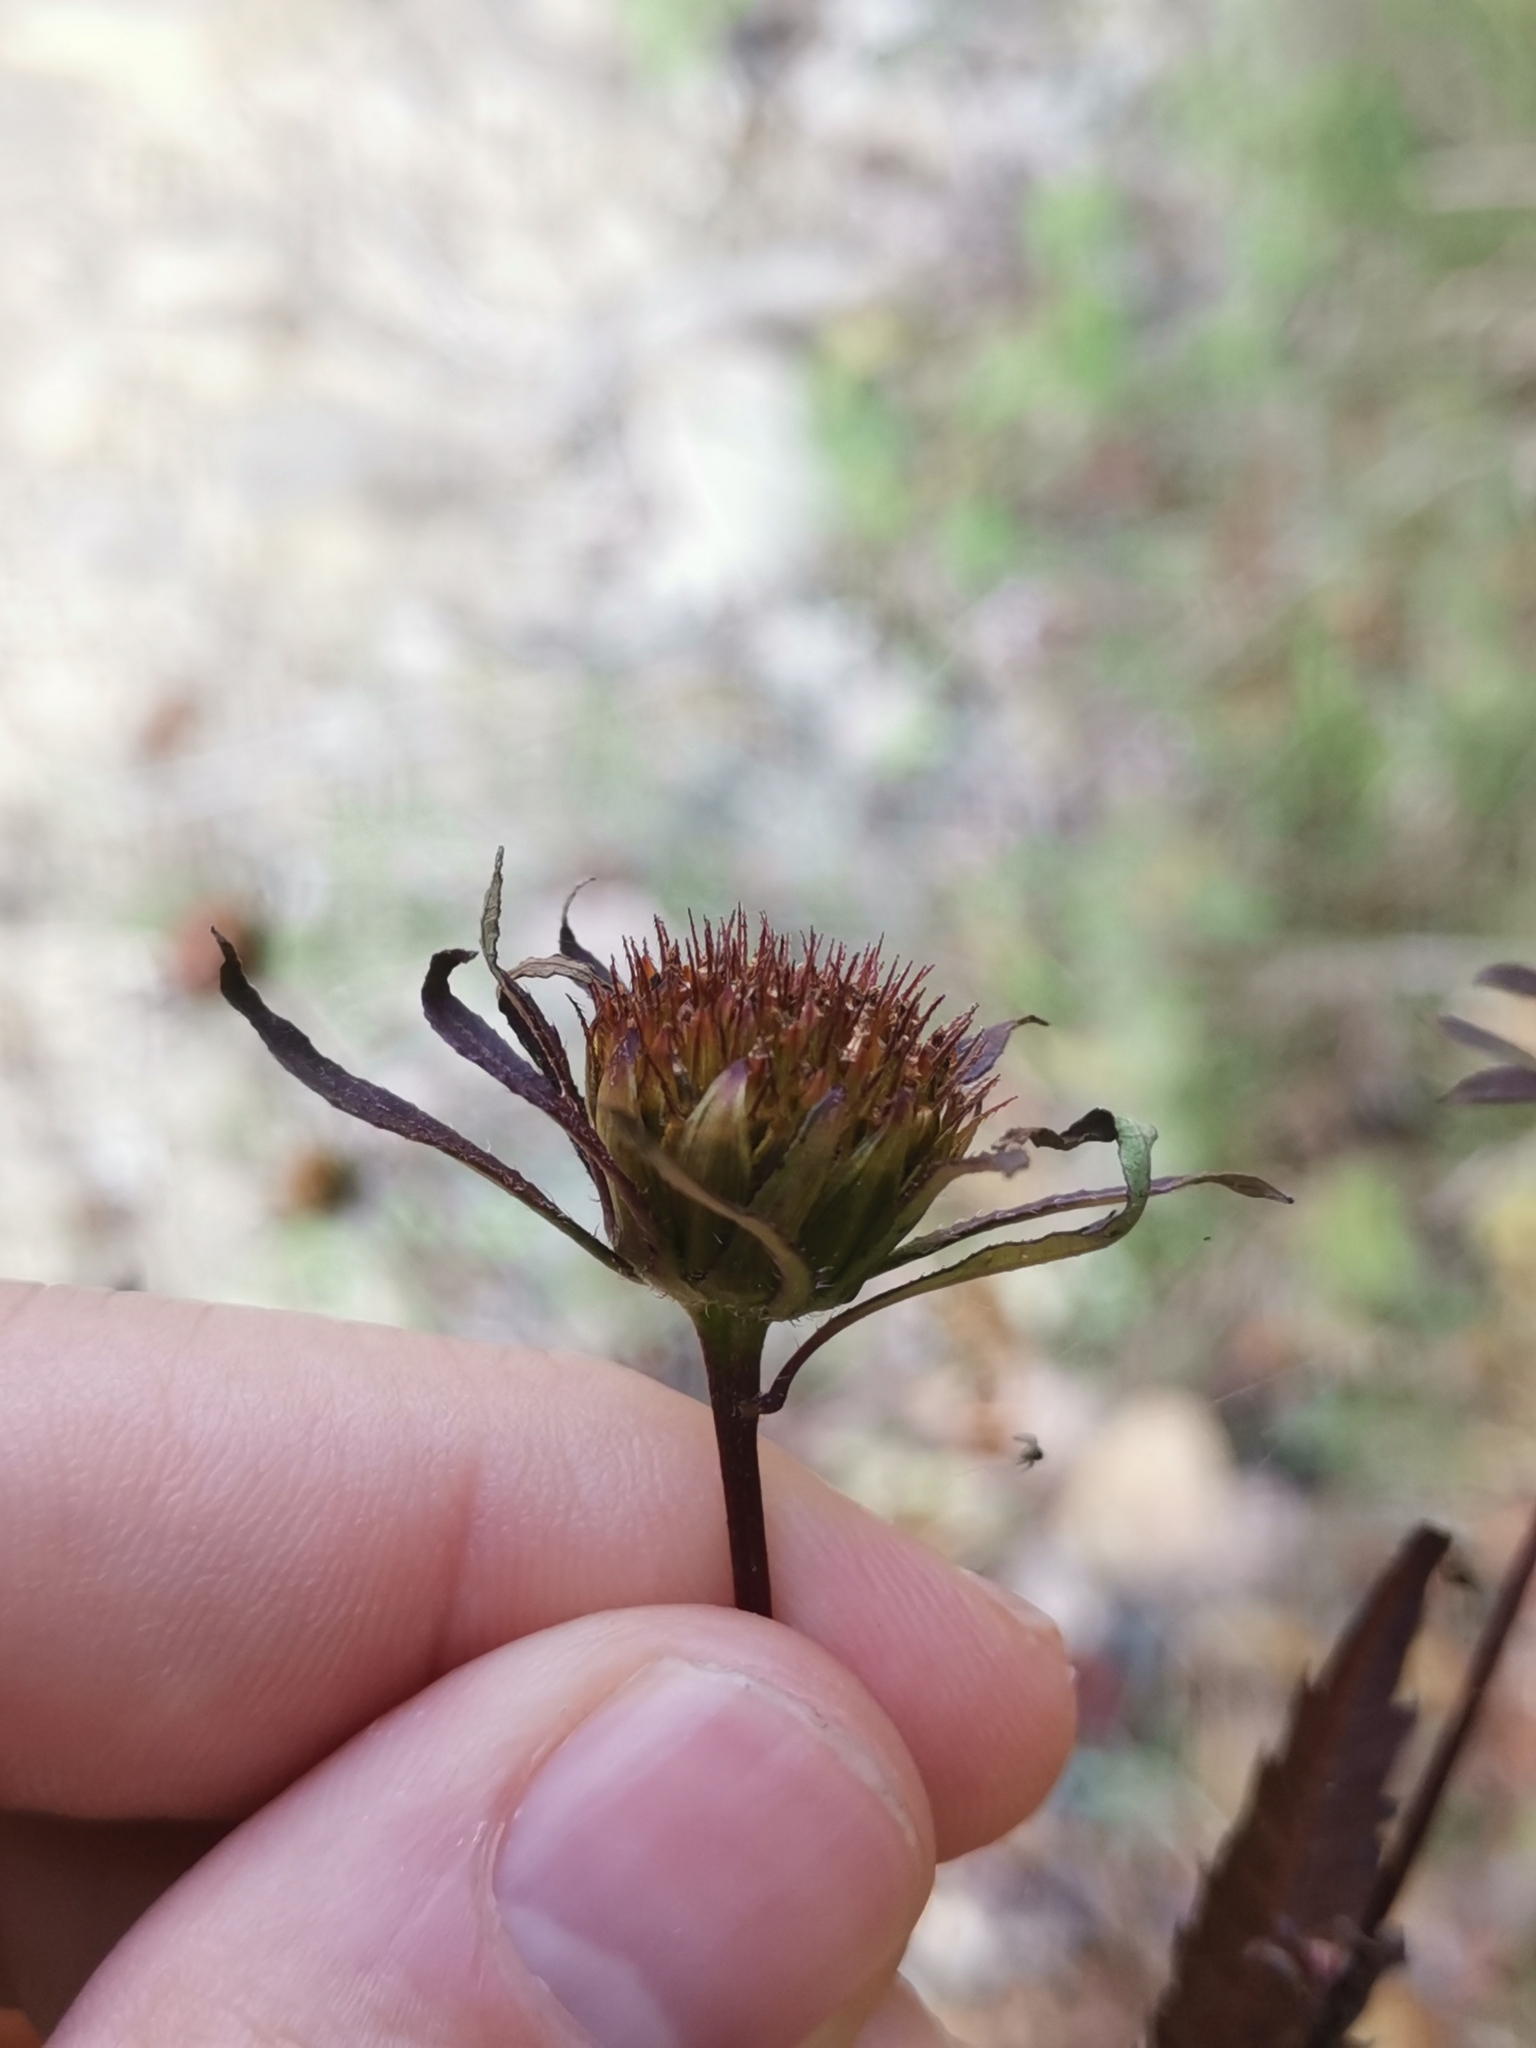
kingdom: Plantae
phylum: Tracheophyta
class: Magnoliopsida
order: Asterales
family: Asteraceae
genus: Bidens
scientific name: Bidens frondosa
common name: Beggarticks
